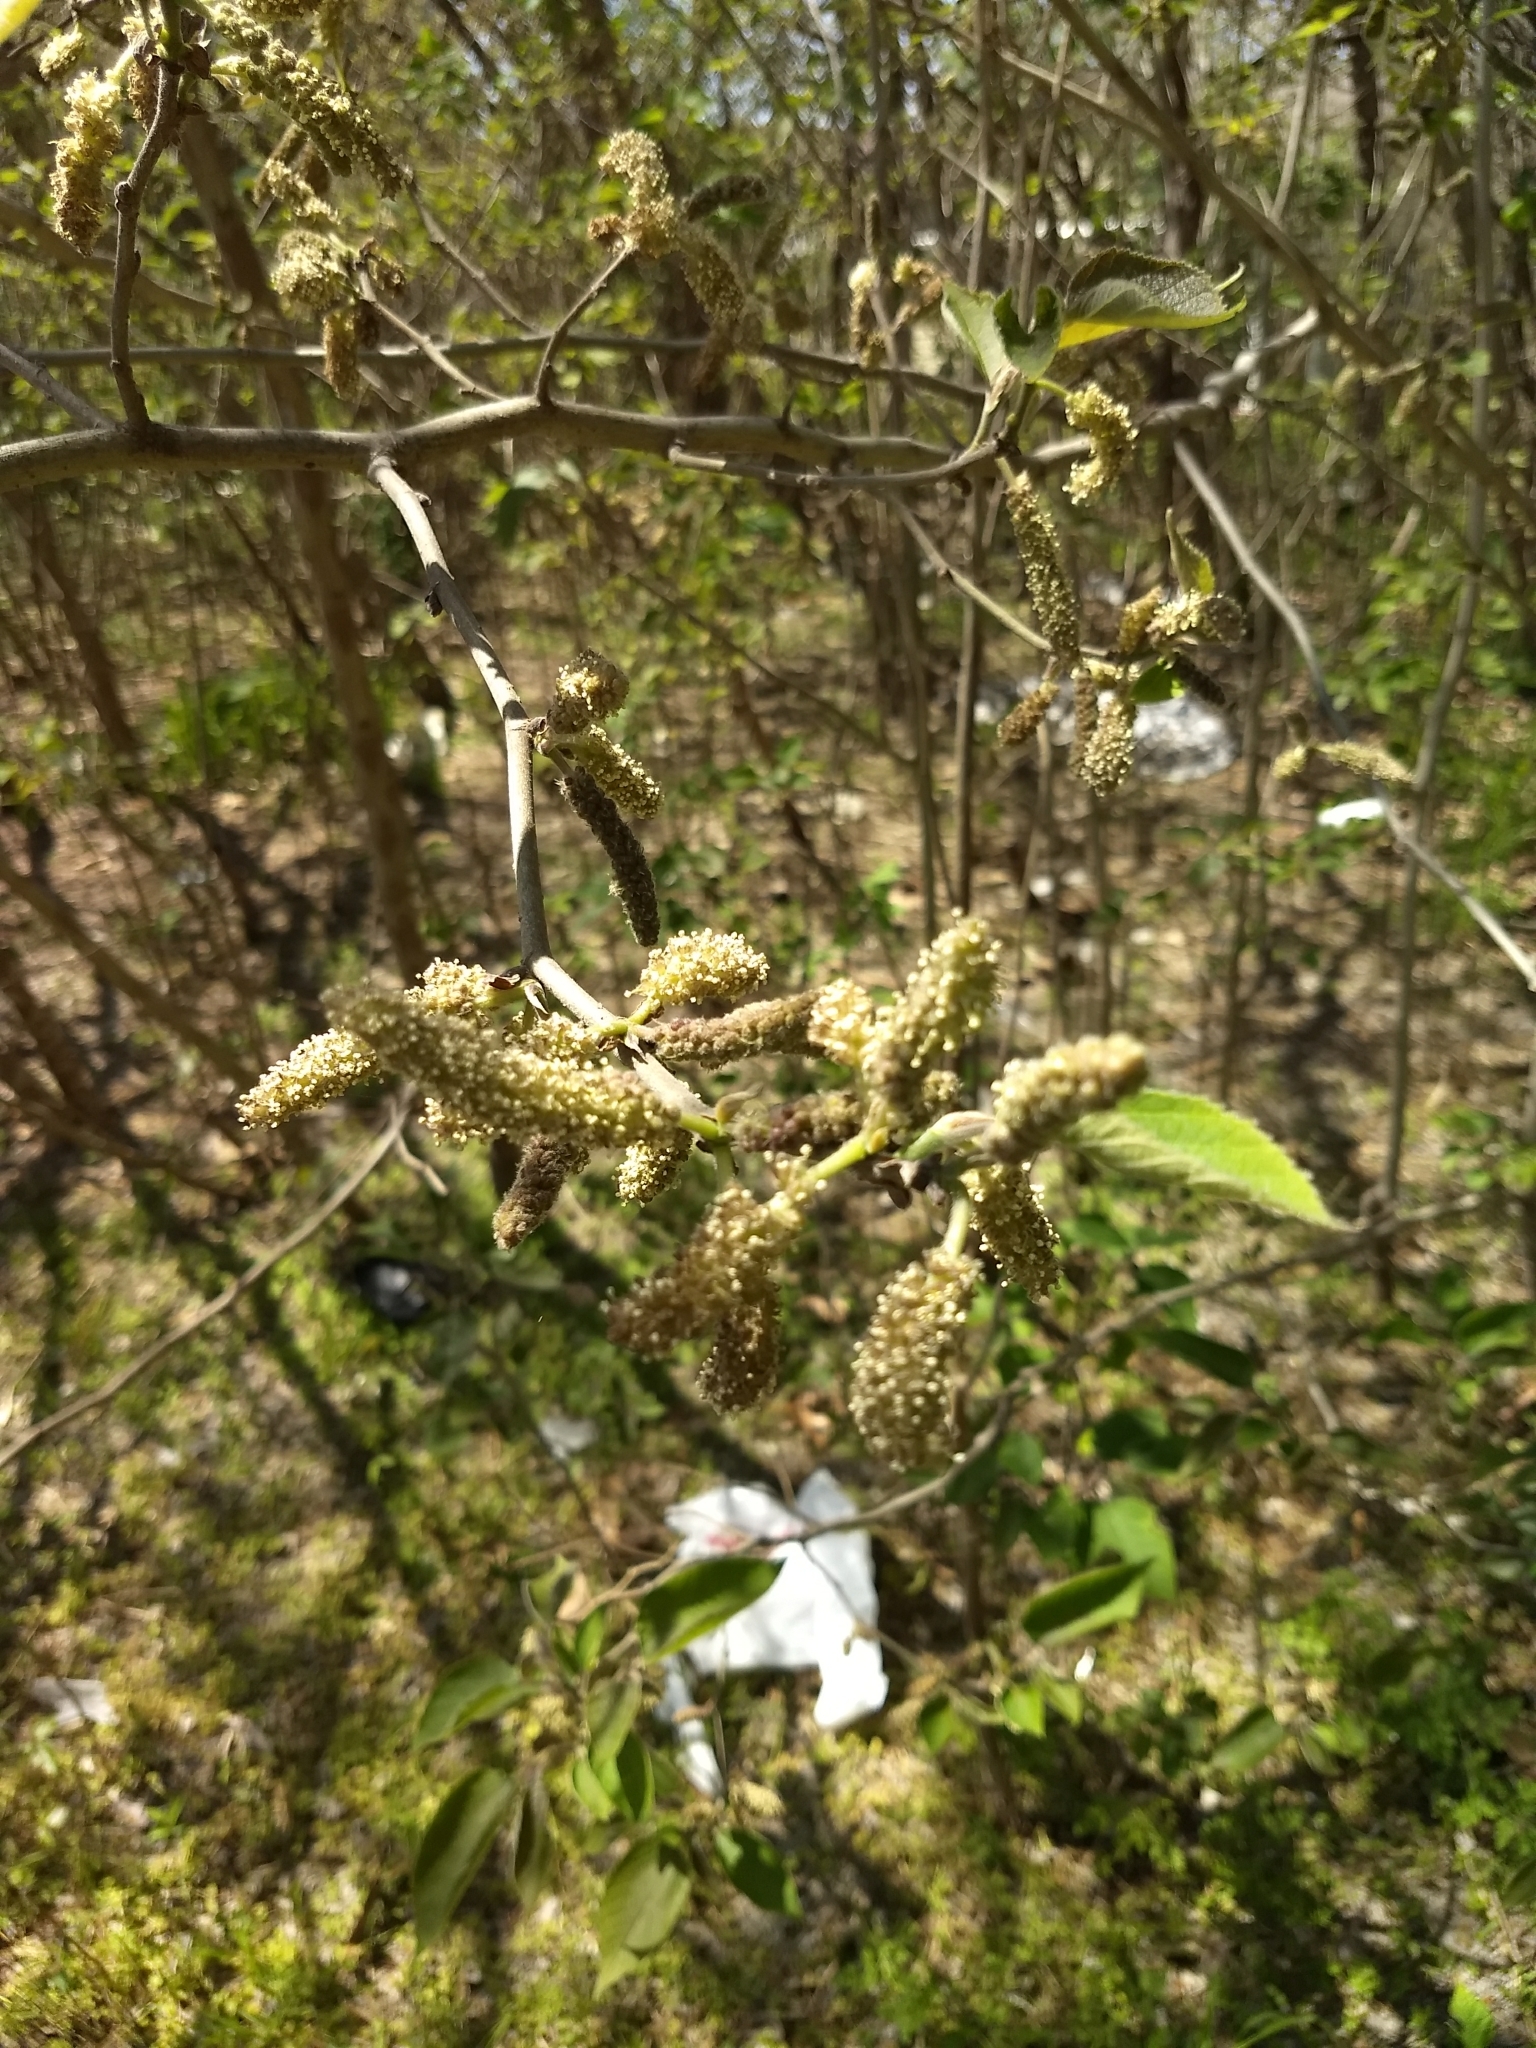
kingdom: Plantae
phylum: Tracheophyta
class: Magnoliopsida
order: Rosales
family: Moraceae
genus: Broussonetia
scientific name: Broussonetia papyrifera
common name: Paper mulberry
